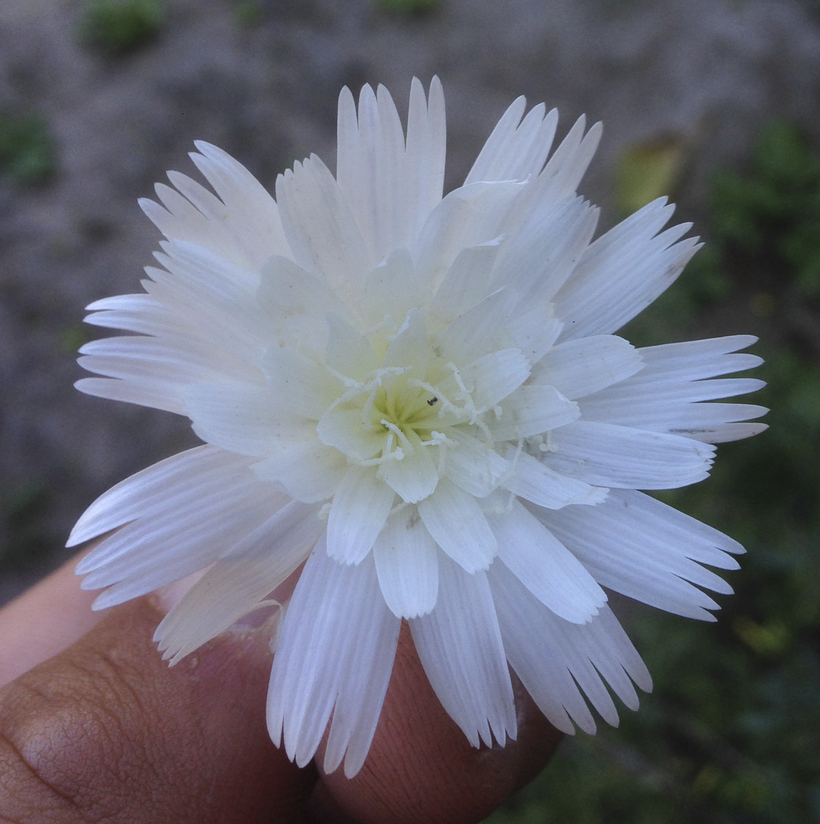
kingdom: Plantae
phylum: Tracheophyta
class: Magnoliopsida
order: Asterales
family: Asteraceae
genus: Rafinesquia
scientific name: Rafinesquia neomexicana
